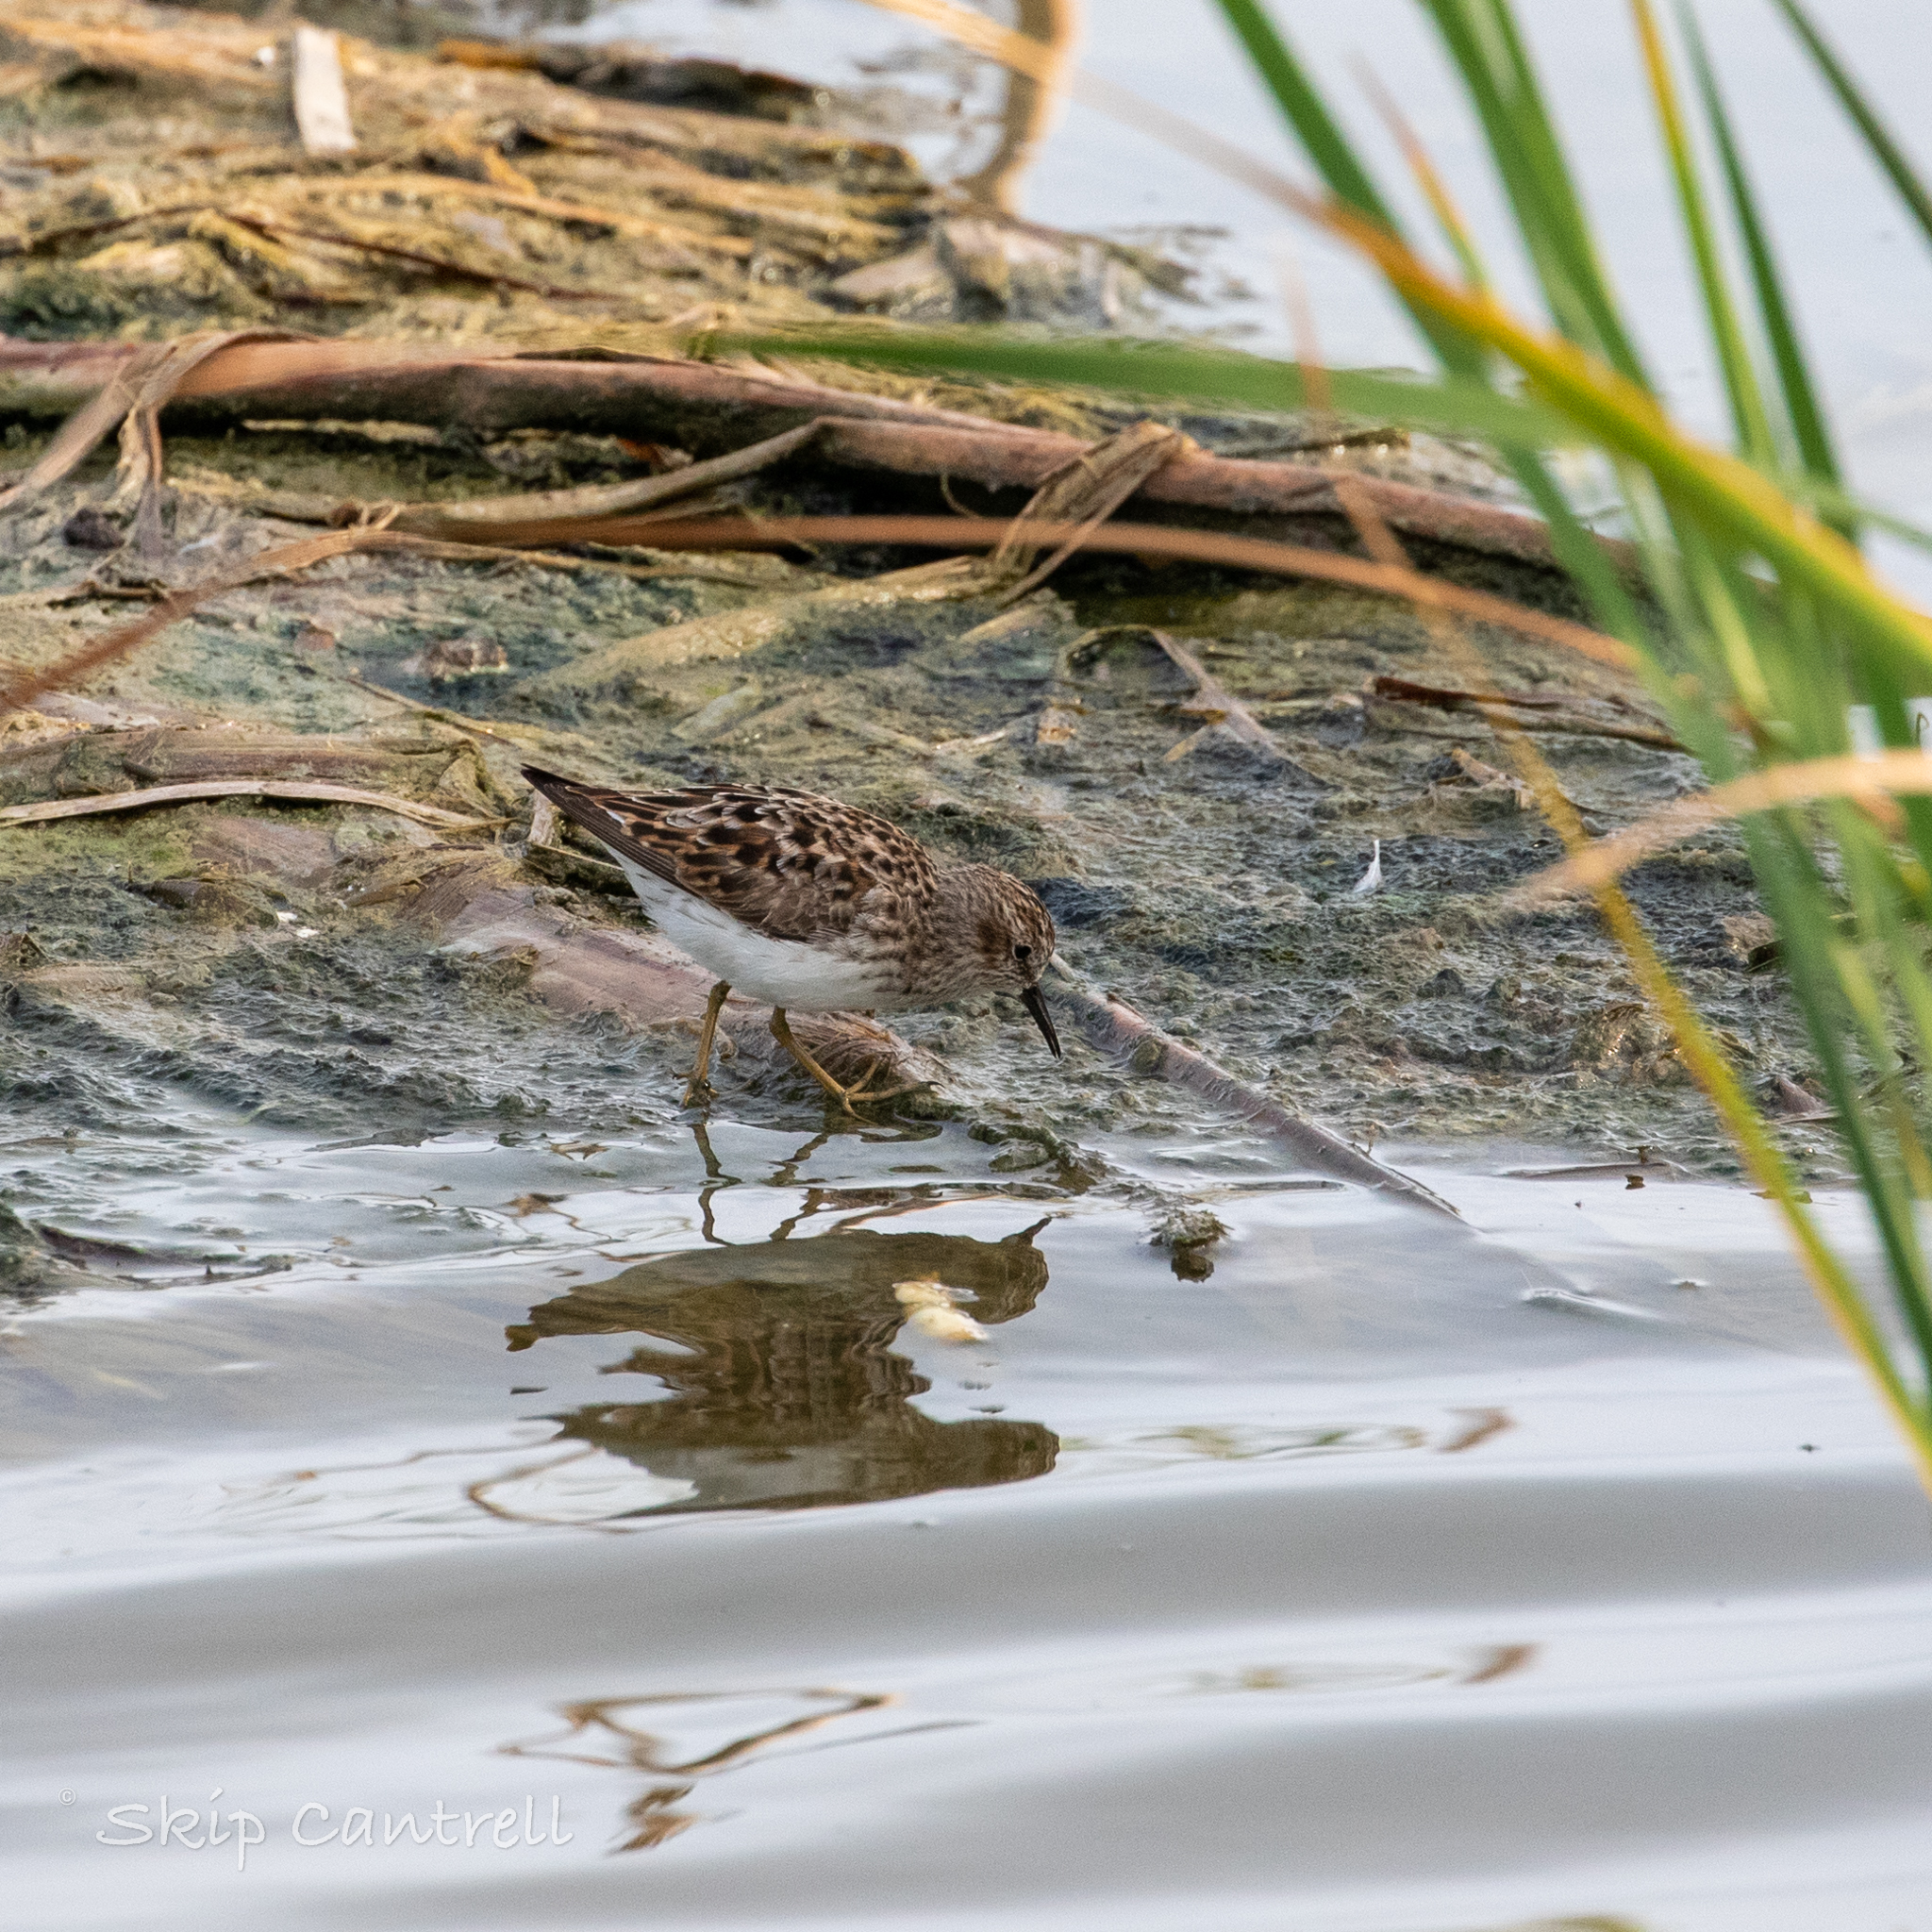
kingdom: Animalia
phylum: Chordata
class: Aves
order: Charadriiformes
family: Scolopacidae
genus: Calidris
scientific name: Calidris minutilla
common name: Least sandpiper
